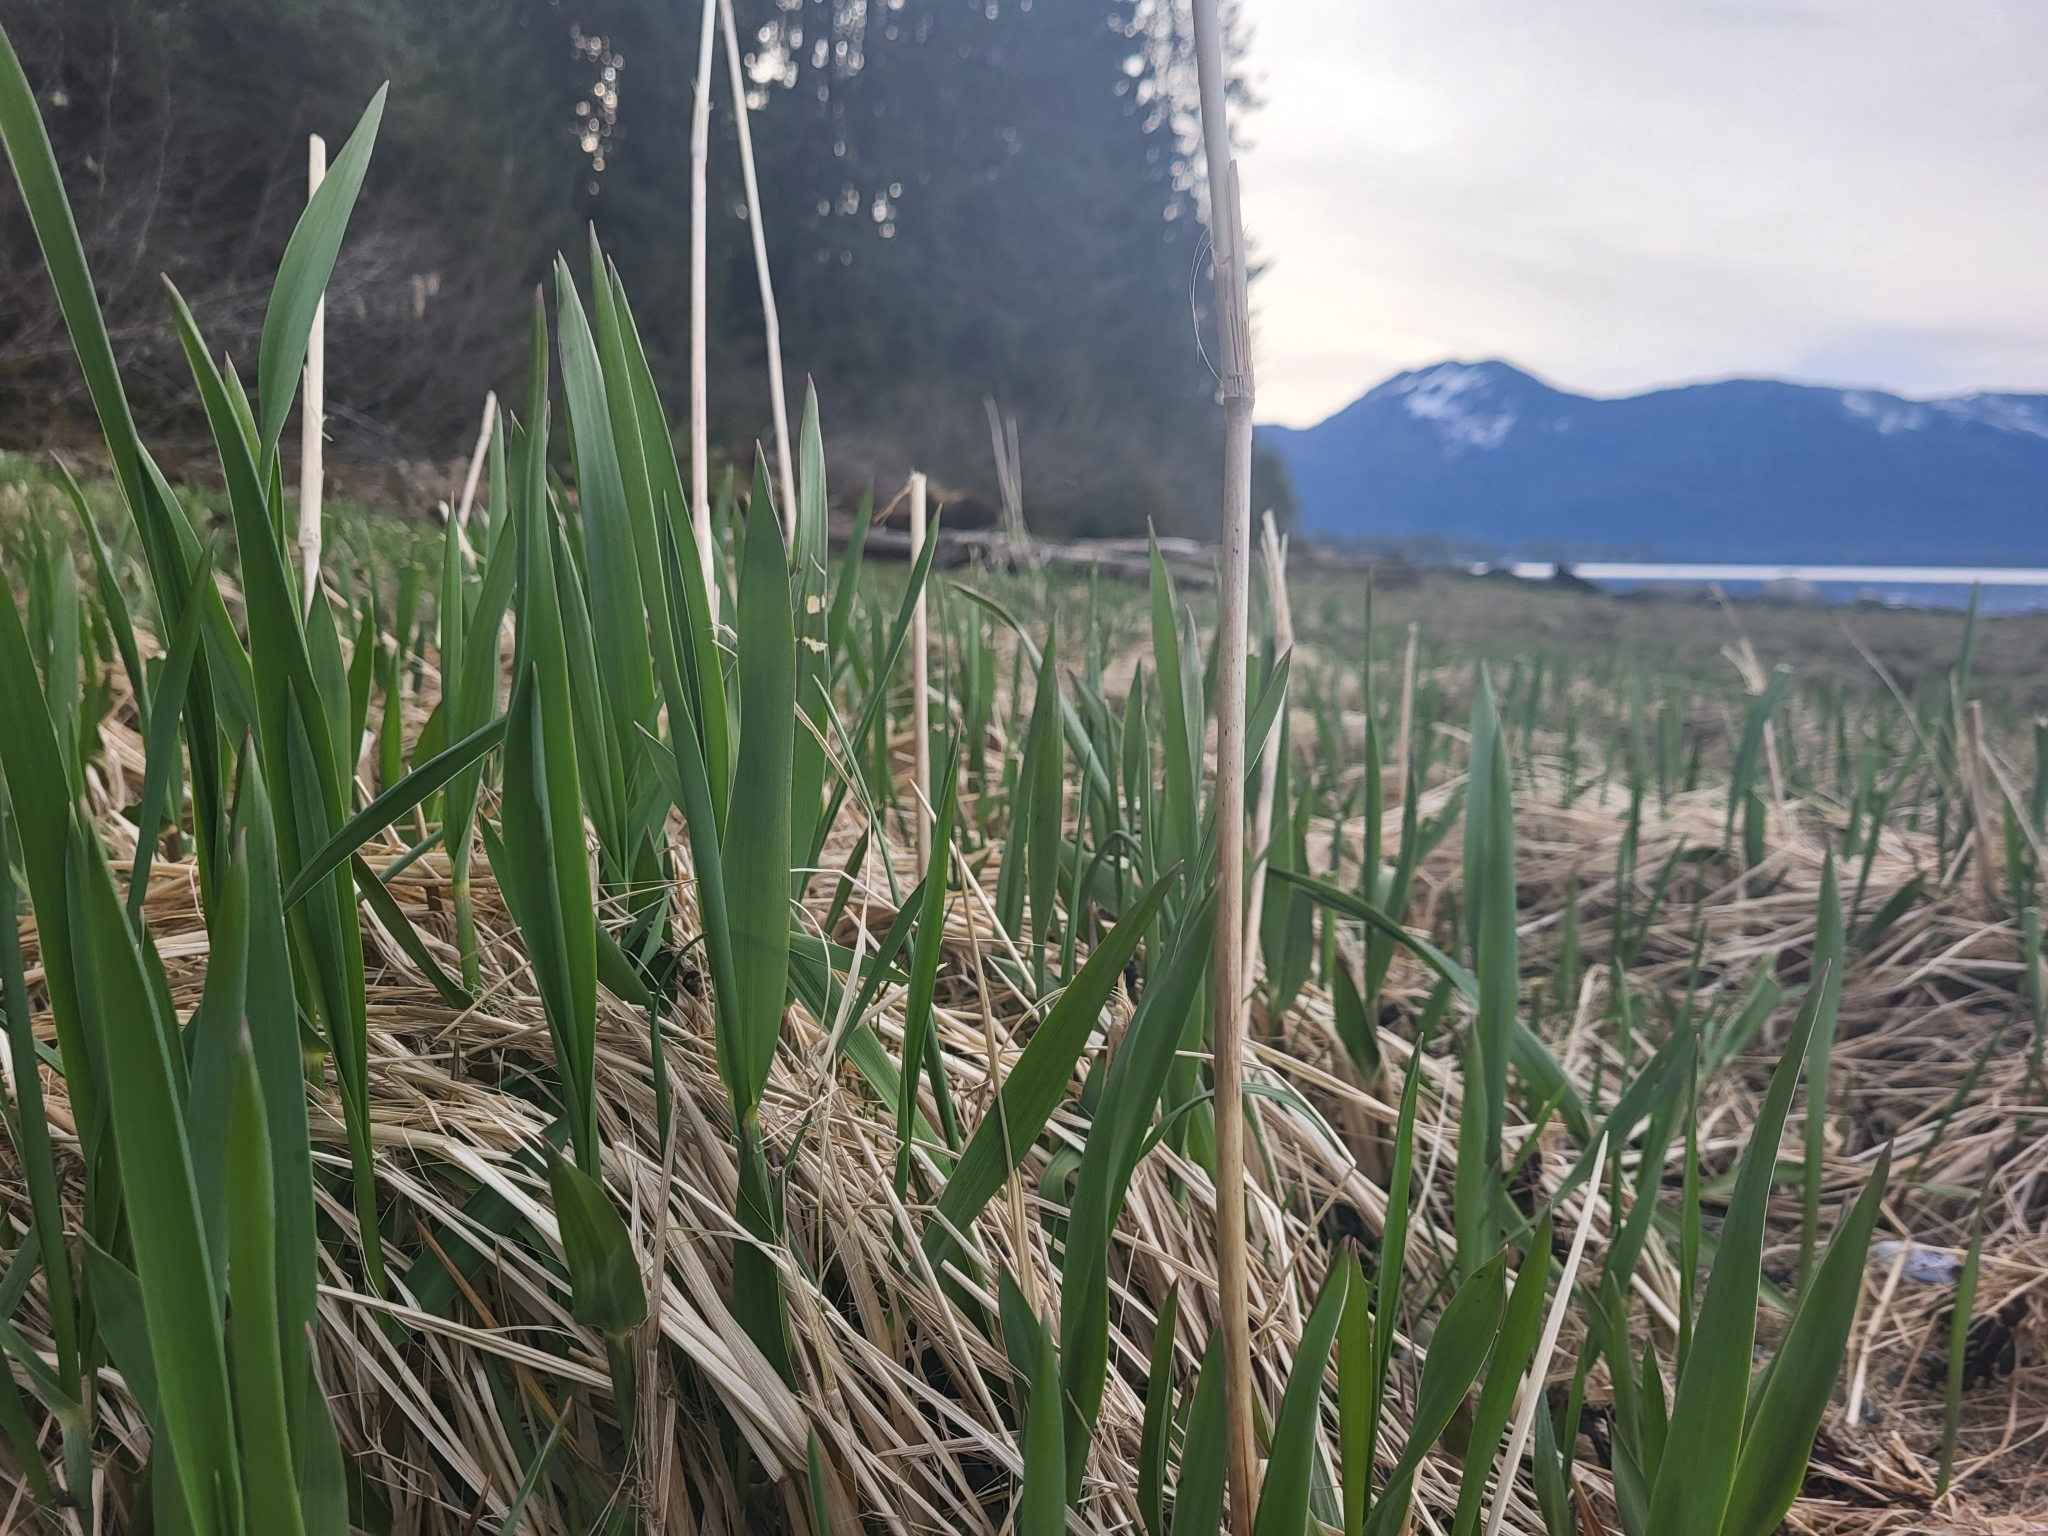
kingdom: Plantae
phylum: Tracheophyta
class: Liliopsida
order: Poales
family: Poaceae
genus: Leymus
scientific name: Leymus mollis
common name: American dune grass
